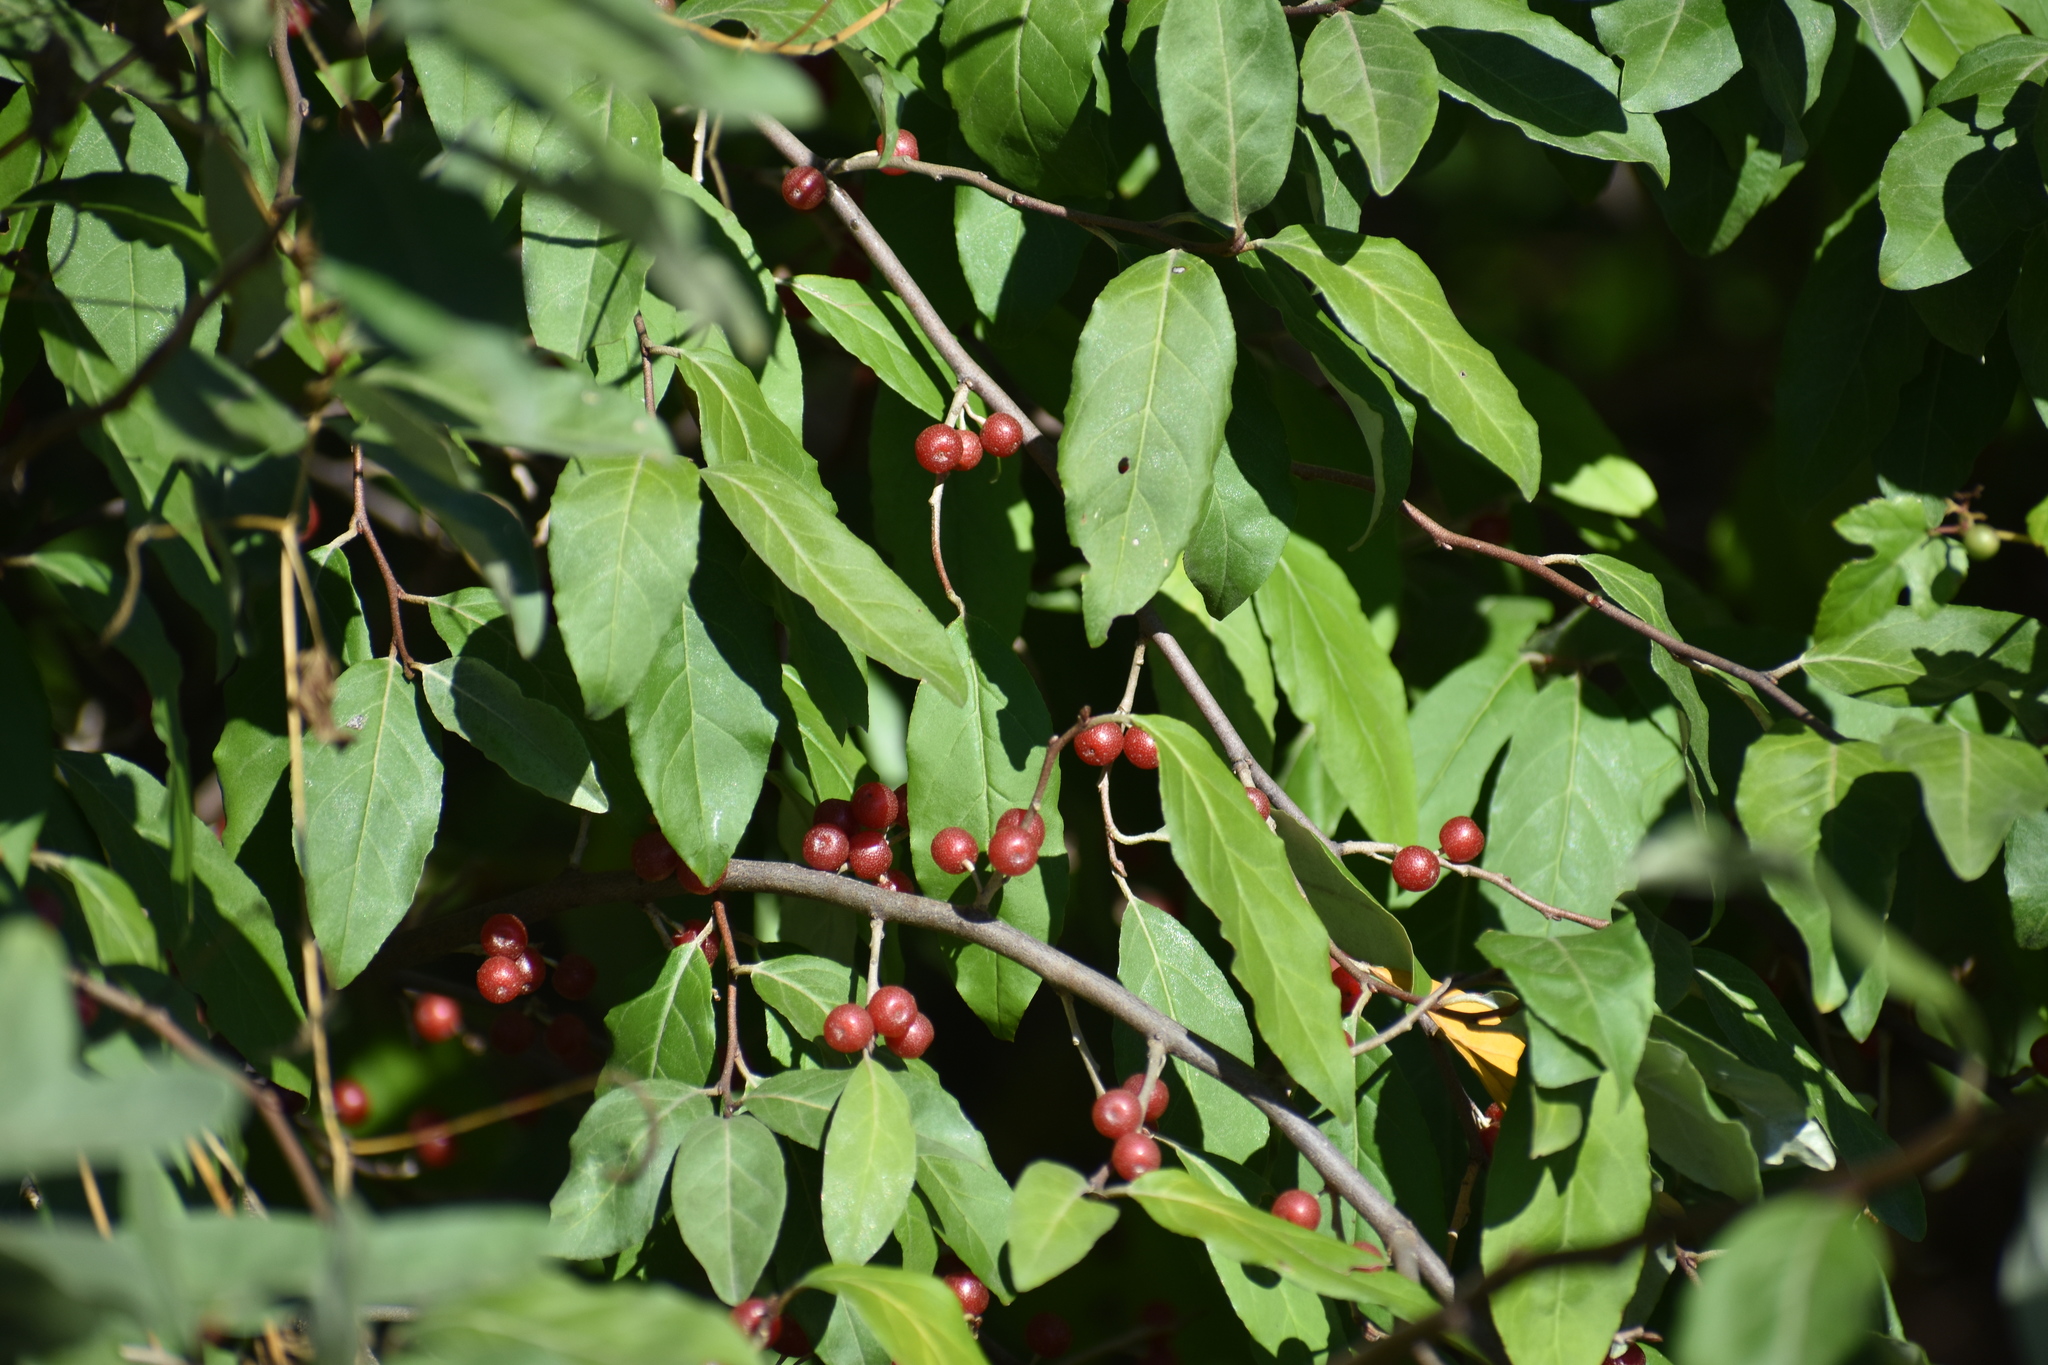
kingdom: Plantae
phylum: Tracheophyta
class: Magnoliopsida
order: Rosales
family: Elaeagnaceae
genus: Elaeagnus
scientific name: Elaeagnus umbellata
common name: Autumn olive
